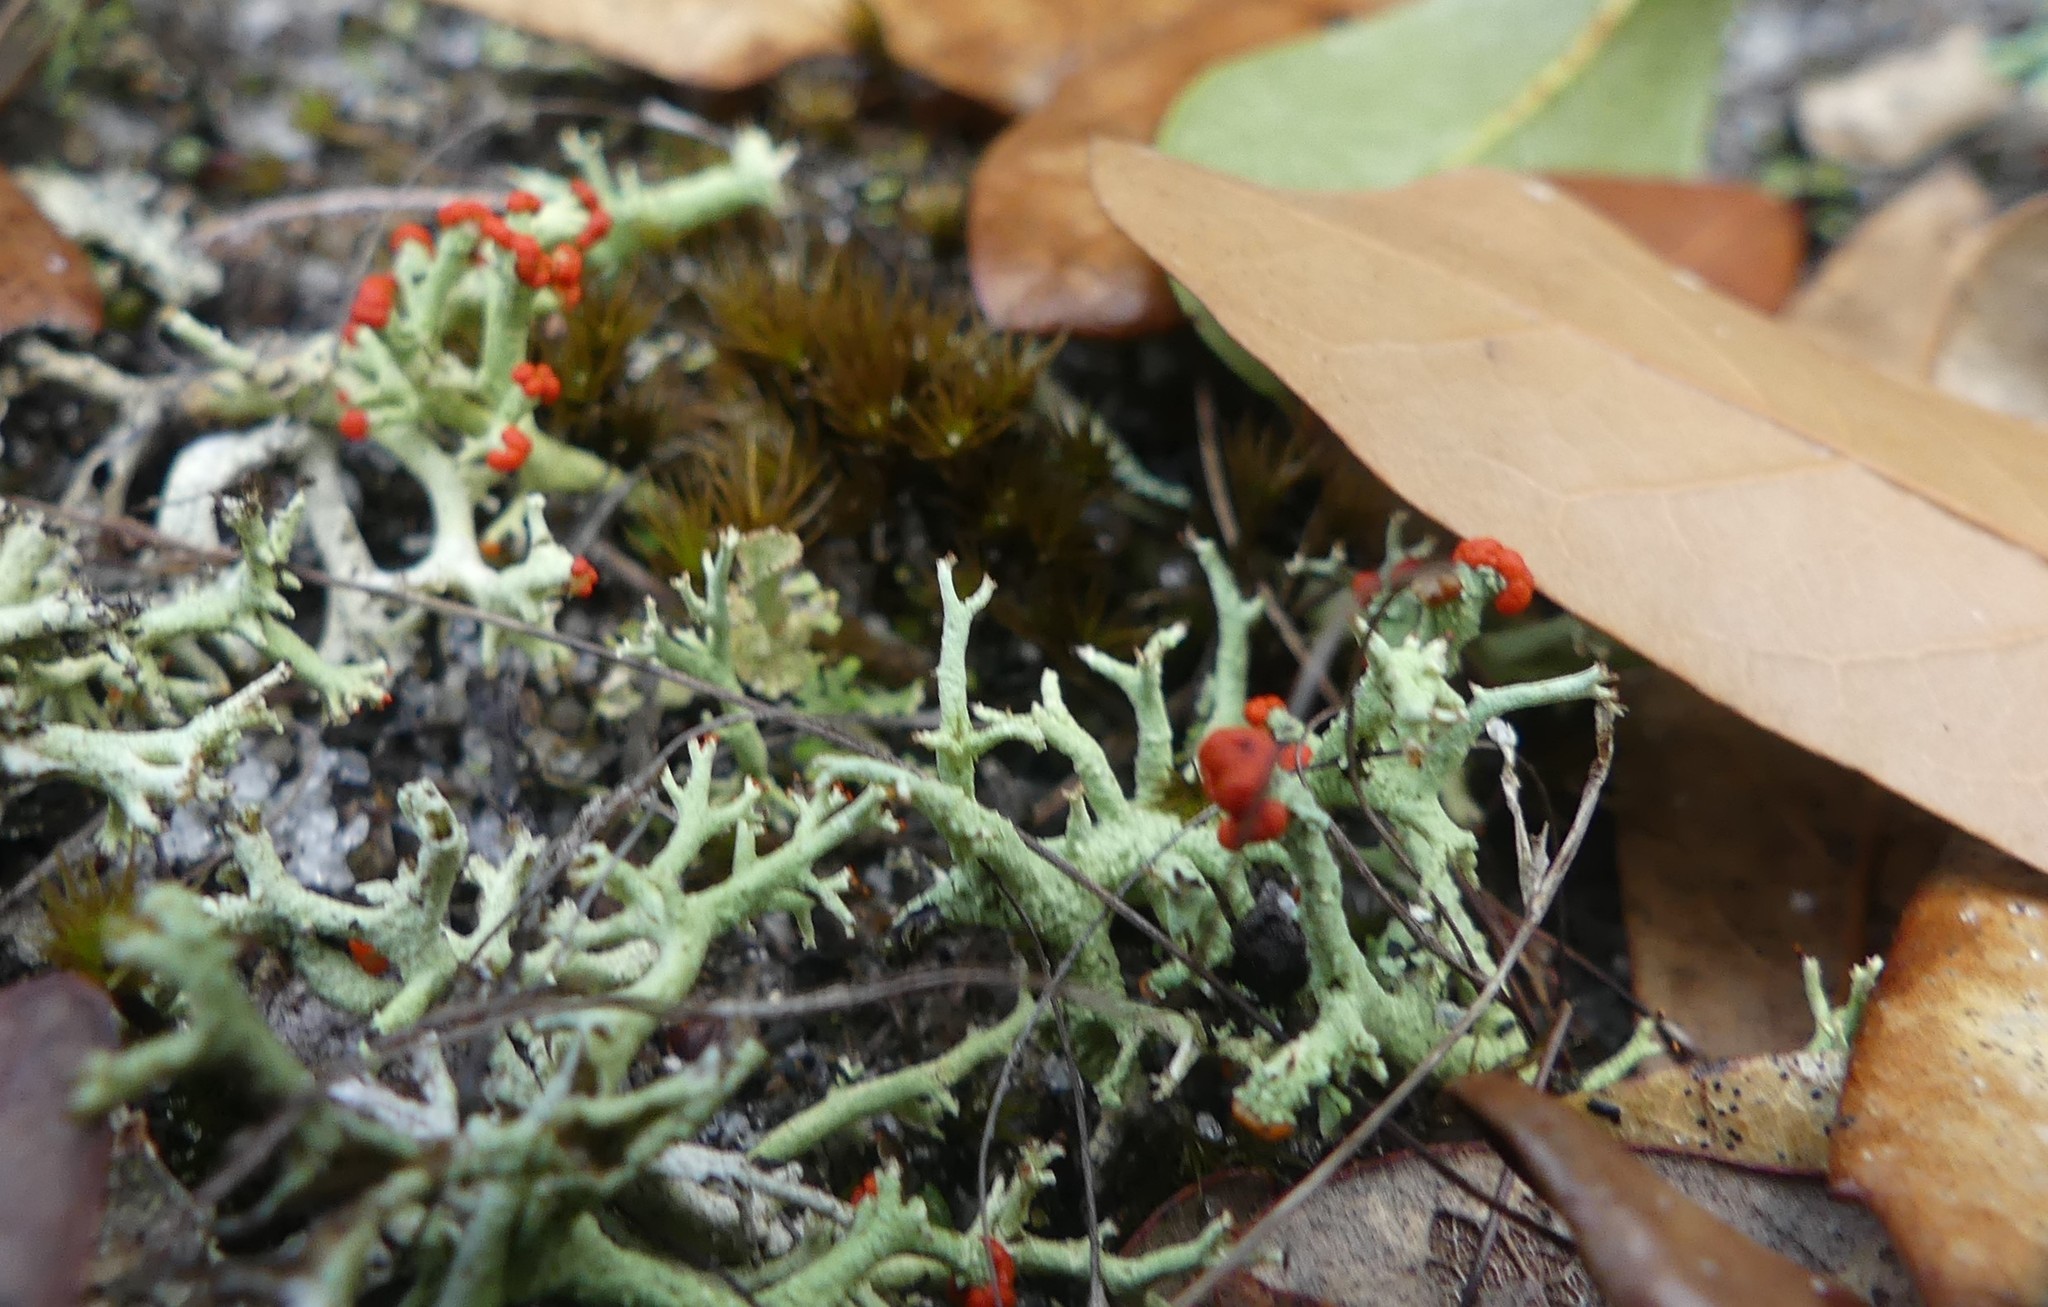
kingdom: Fungi
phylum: Ascomycota
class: Lecanoromycetes
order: Lecanorales
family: Cladoniaceae
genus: Cladonia
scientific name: Cladonia leporina
